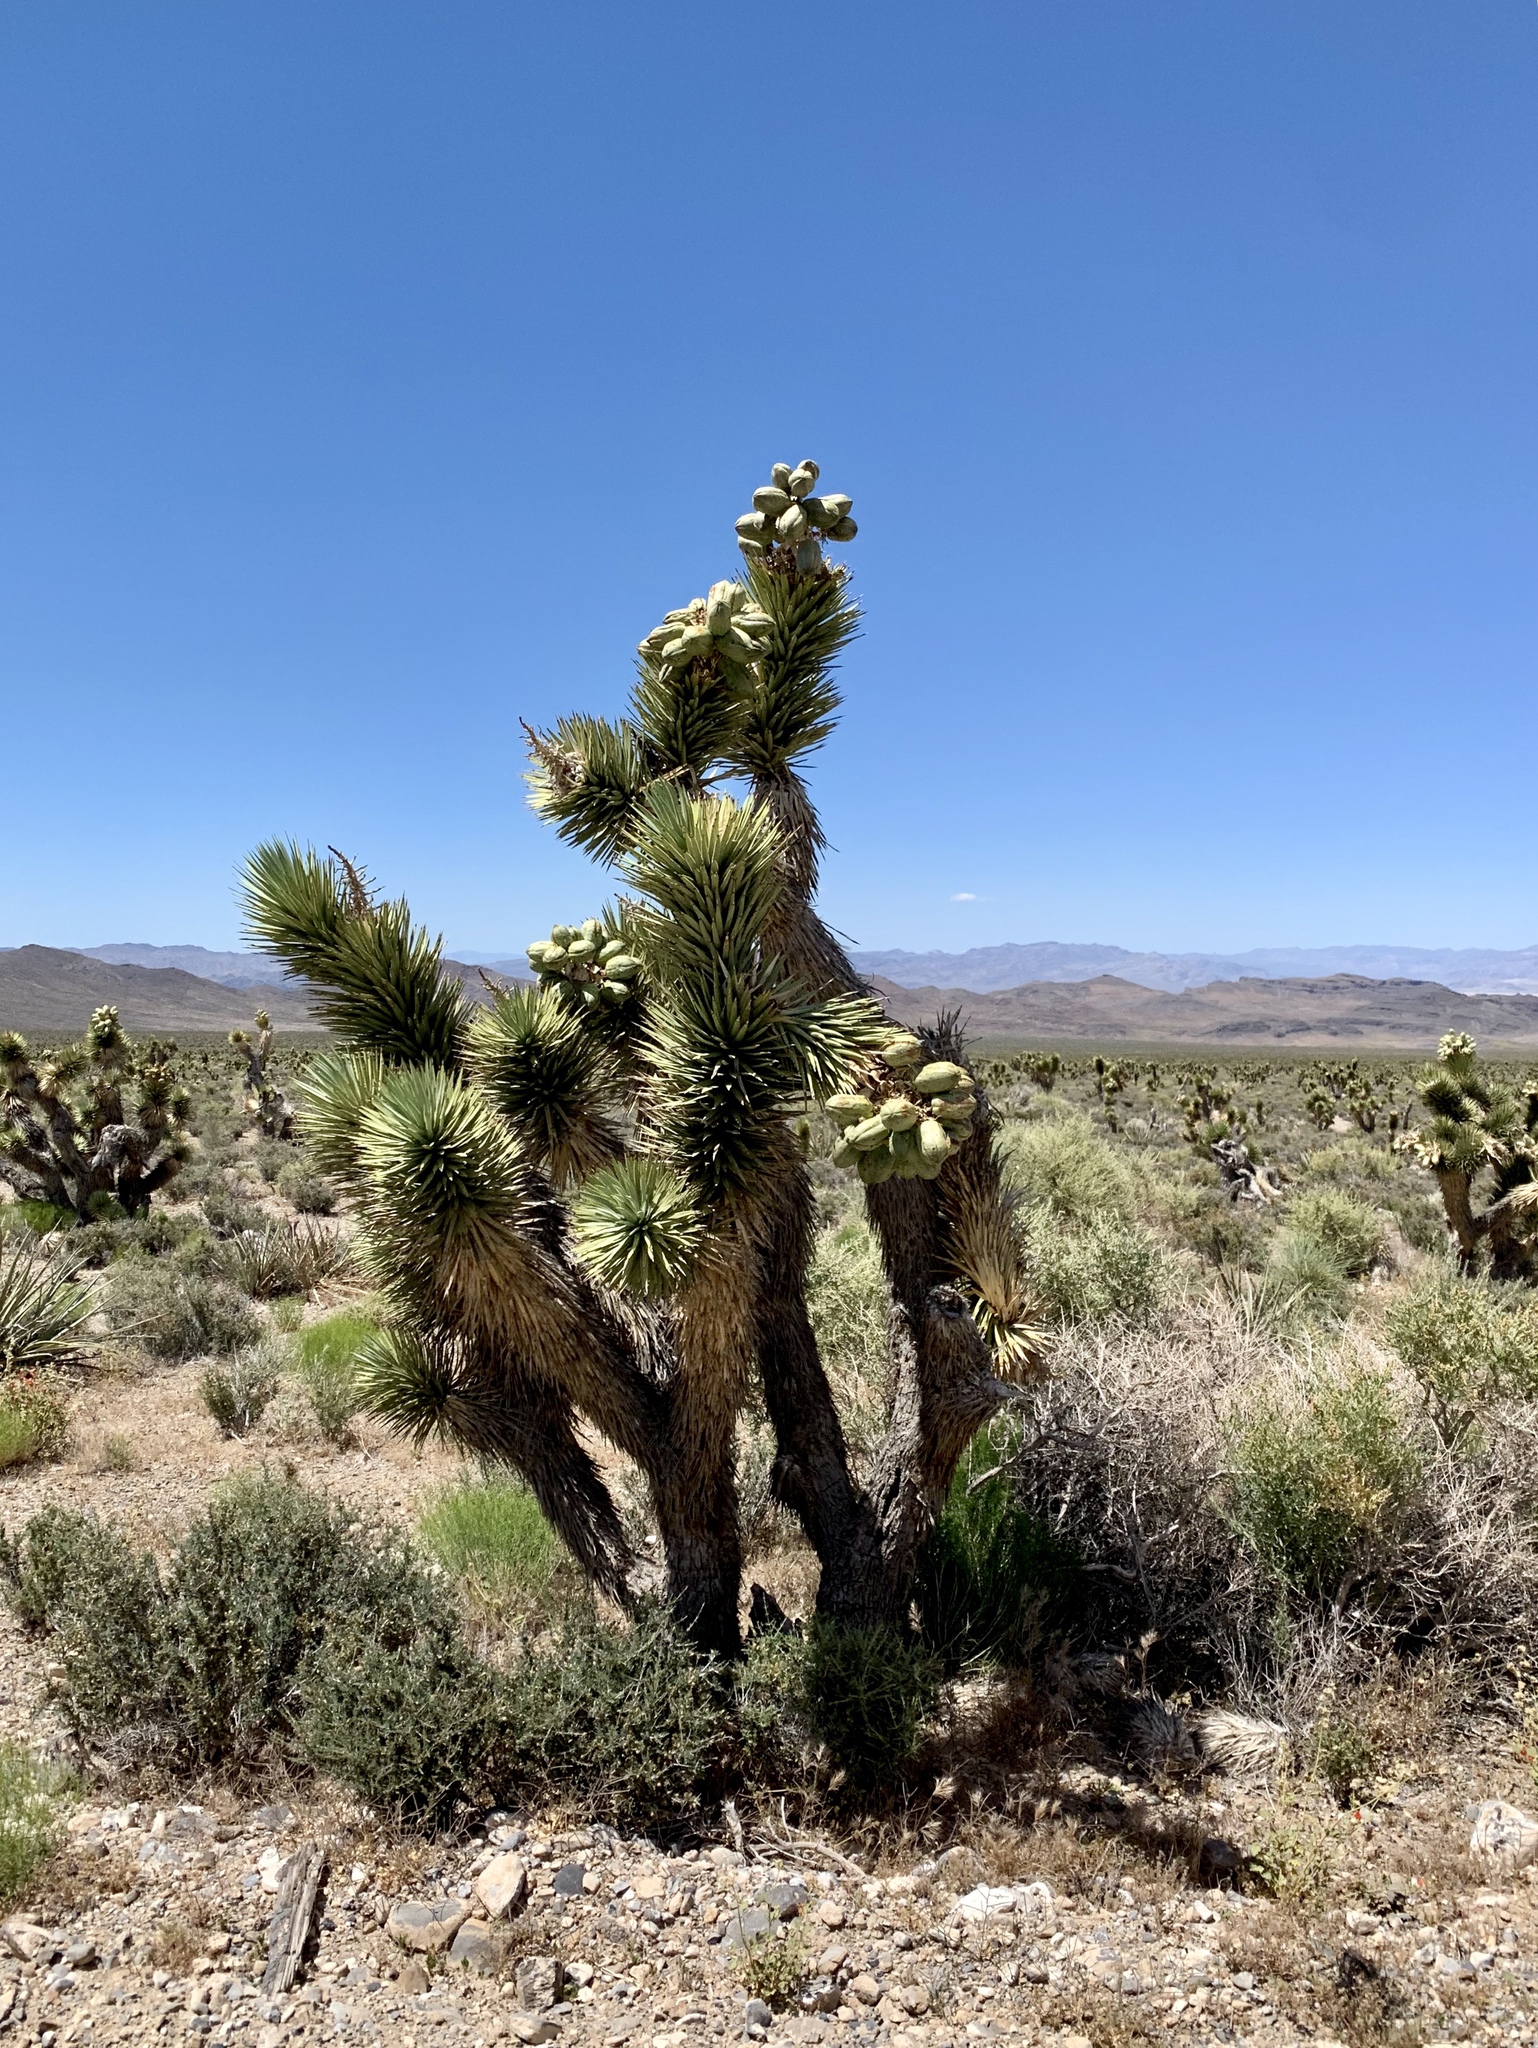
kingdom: Plantae
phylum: Tracheophyta
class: Liliopsida
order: Asparagales
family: Asparagaceae
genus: Yucca
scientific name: Yucca brevifolia
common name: Joshua tree
